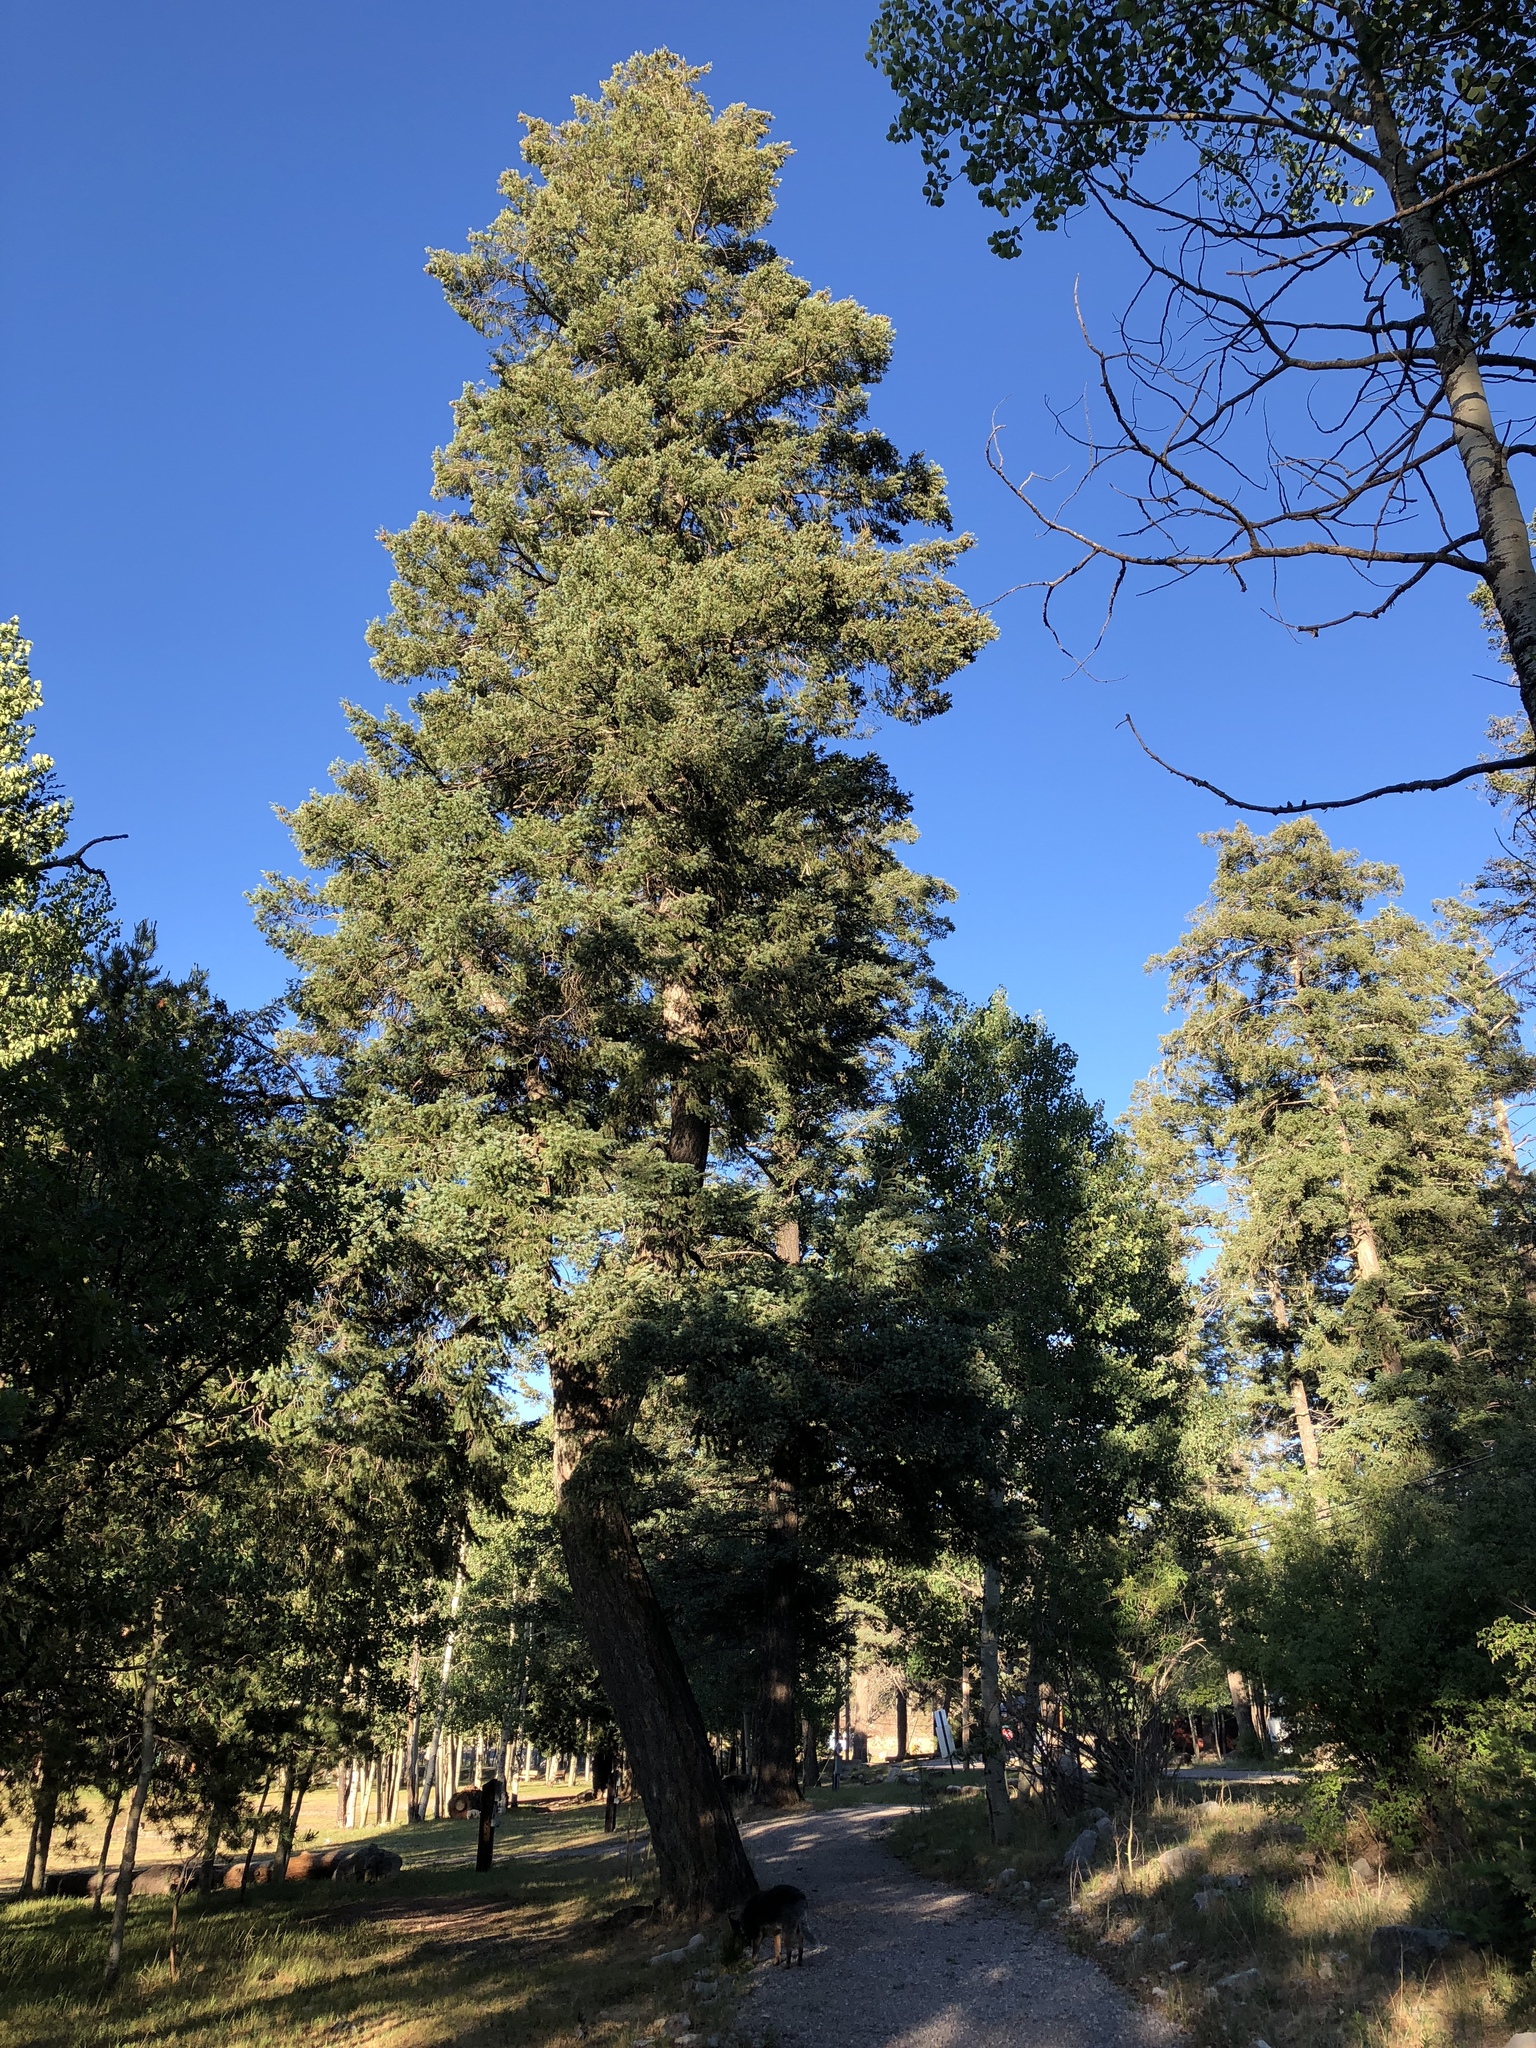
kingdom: Plantae
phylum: Tracheophyta
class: Pinopsida
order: Pinales
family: Pinaceae
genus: Pseudotsuga
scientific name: Pseudotsuga menziesii
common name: Douglas fir
